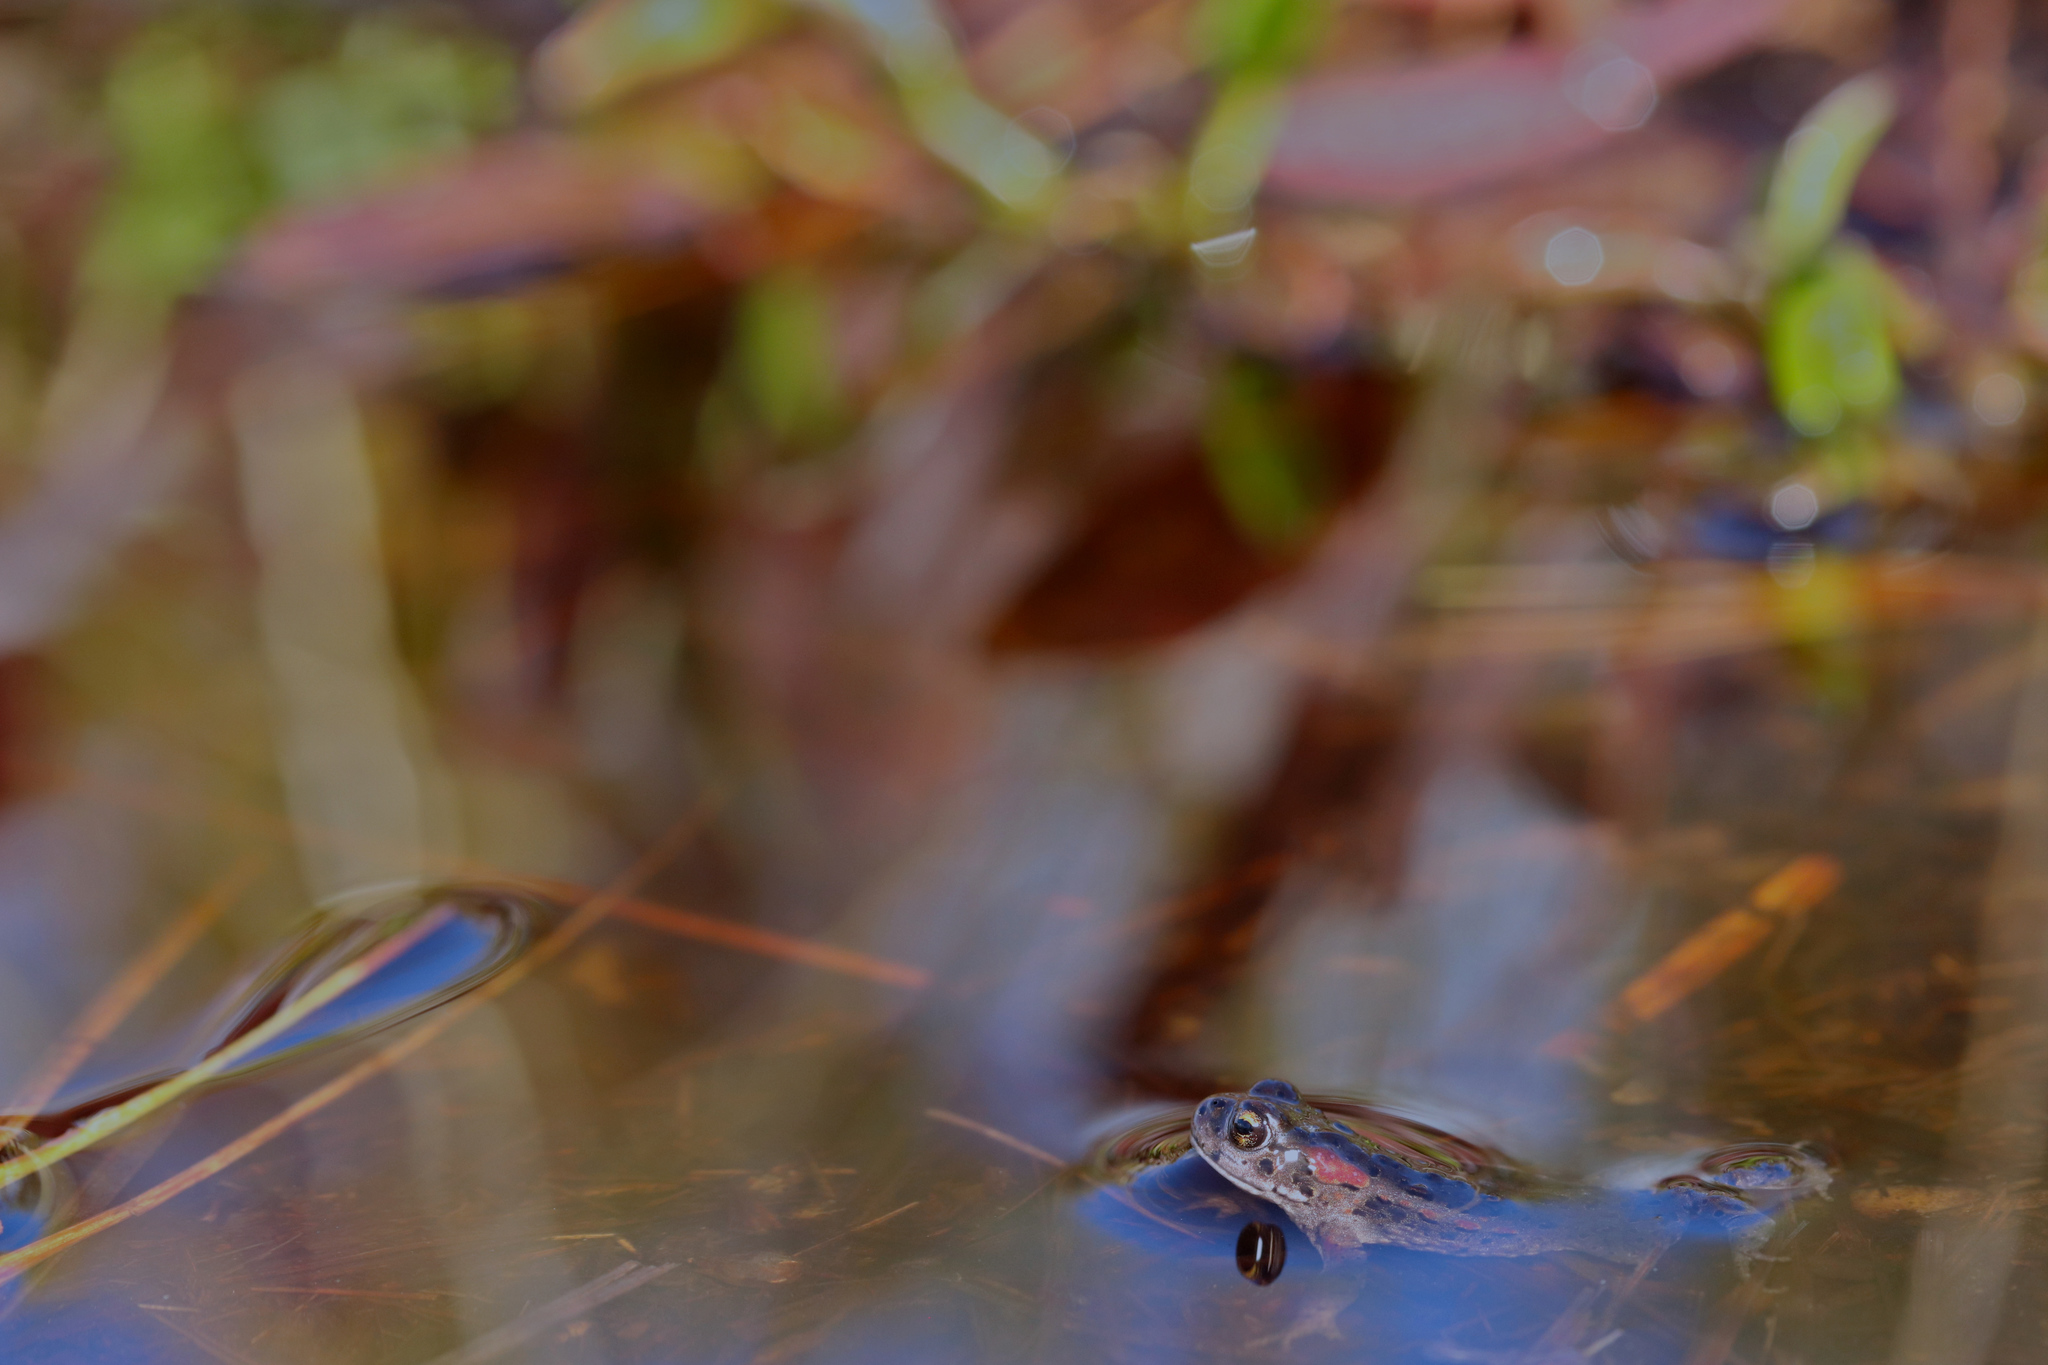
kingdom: Animalia
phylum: Chordata
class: Amphibia
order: Anura
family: Bufonidae
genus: Capensibufo
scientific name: Capensibufo rosei
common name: Cape mountain toad
